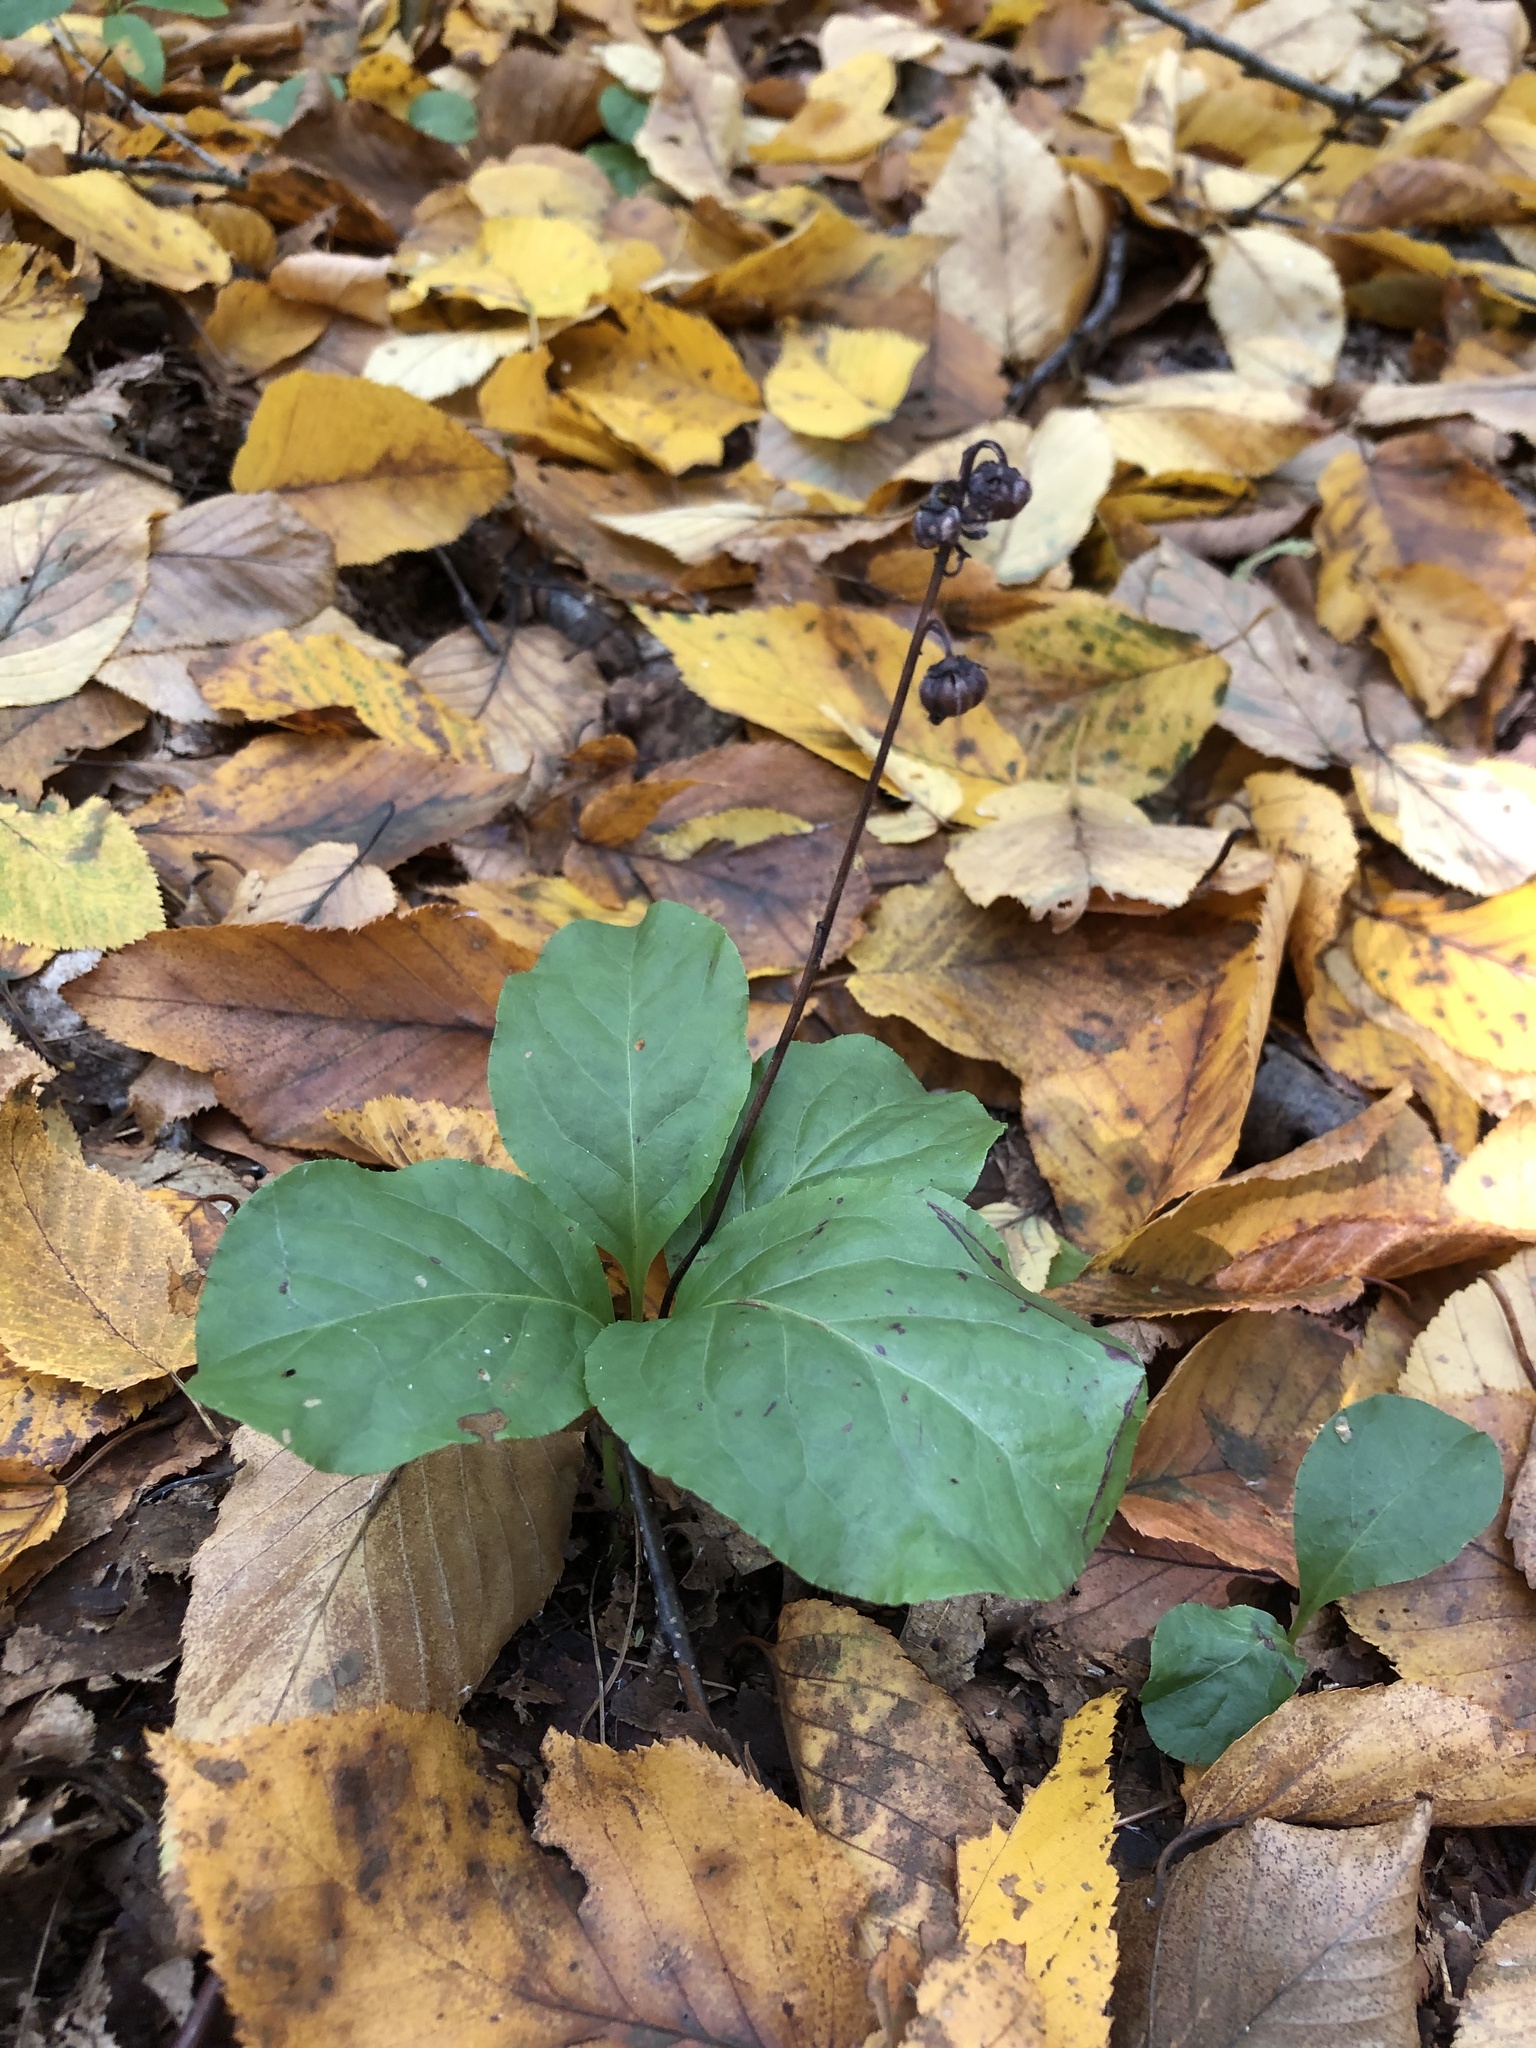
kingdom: Plantae
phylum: Tracheophyta
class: Magnoliopsida
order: Ericales
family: Ericaceae
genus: Pyrola
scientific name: Pyrola elliptica
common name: Shinleaf
